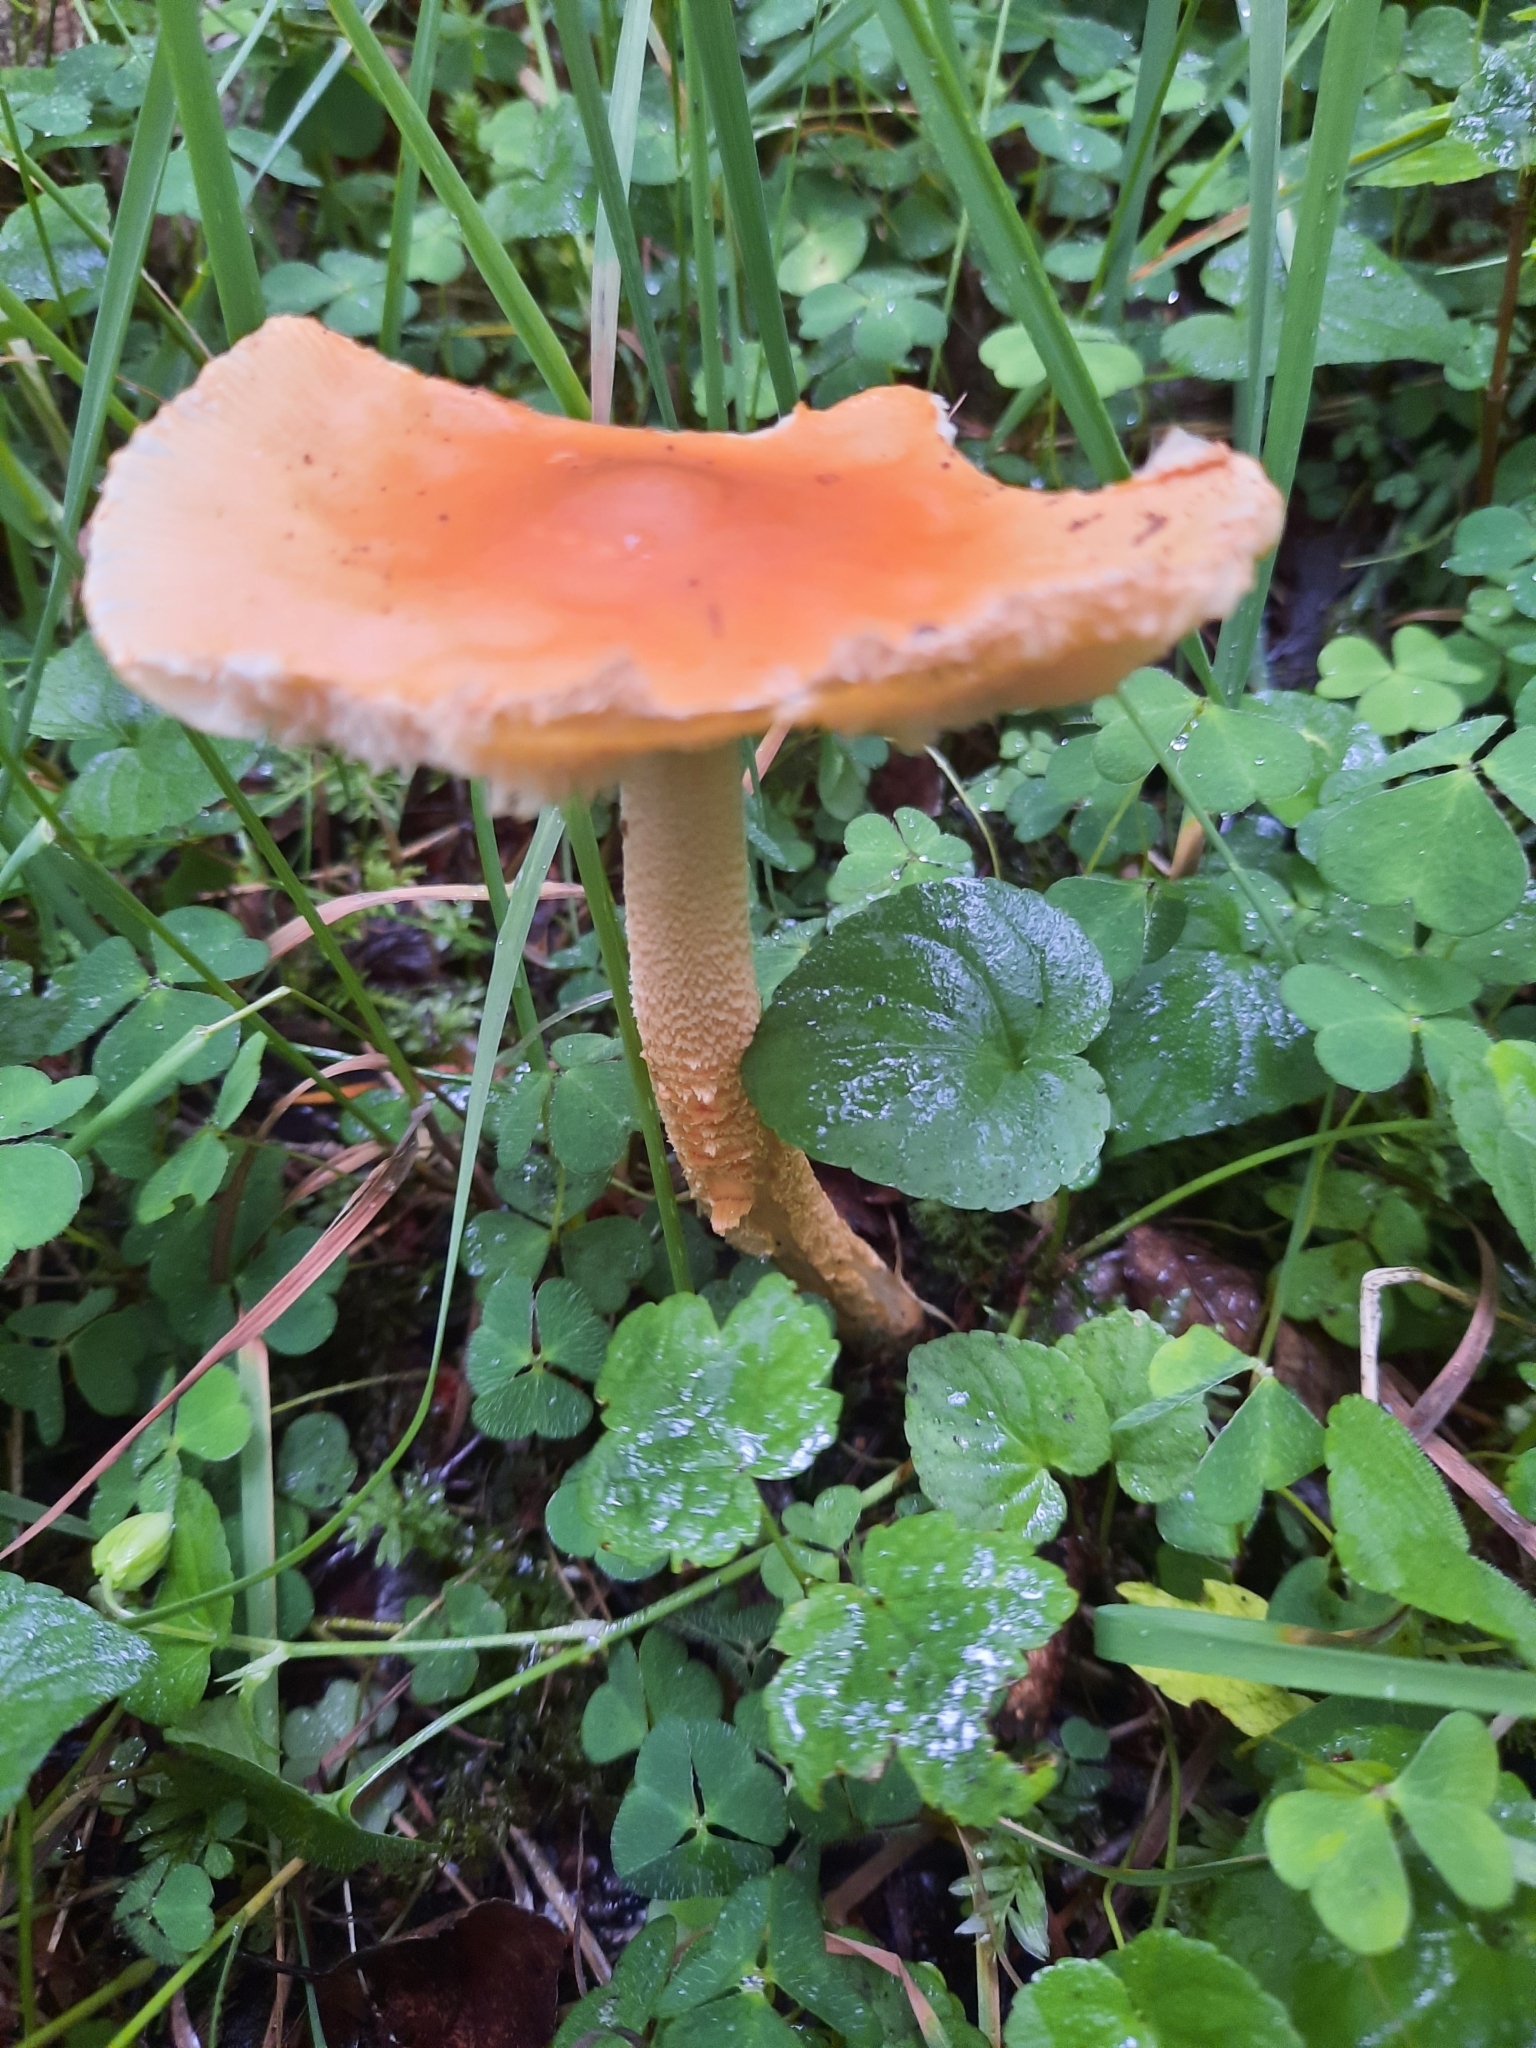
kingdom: Fungi
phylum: Basidiomycota
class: Agaricomycetes
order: Agaricales
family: Amanitaceae
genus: Amanita
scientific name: Amanita crocea
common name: Orange grisette
